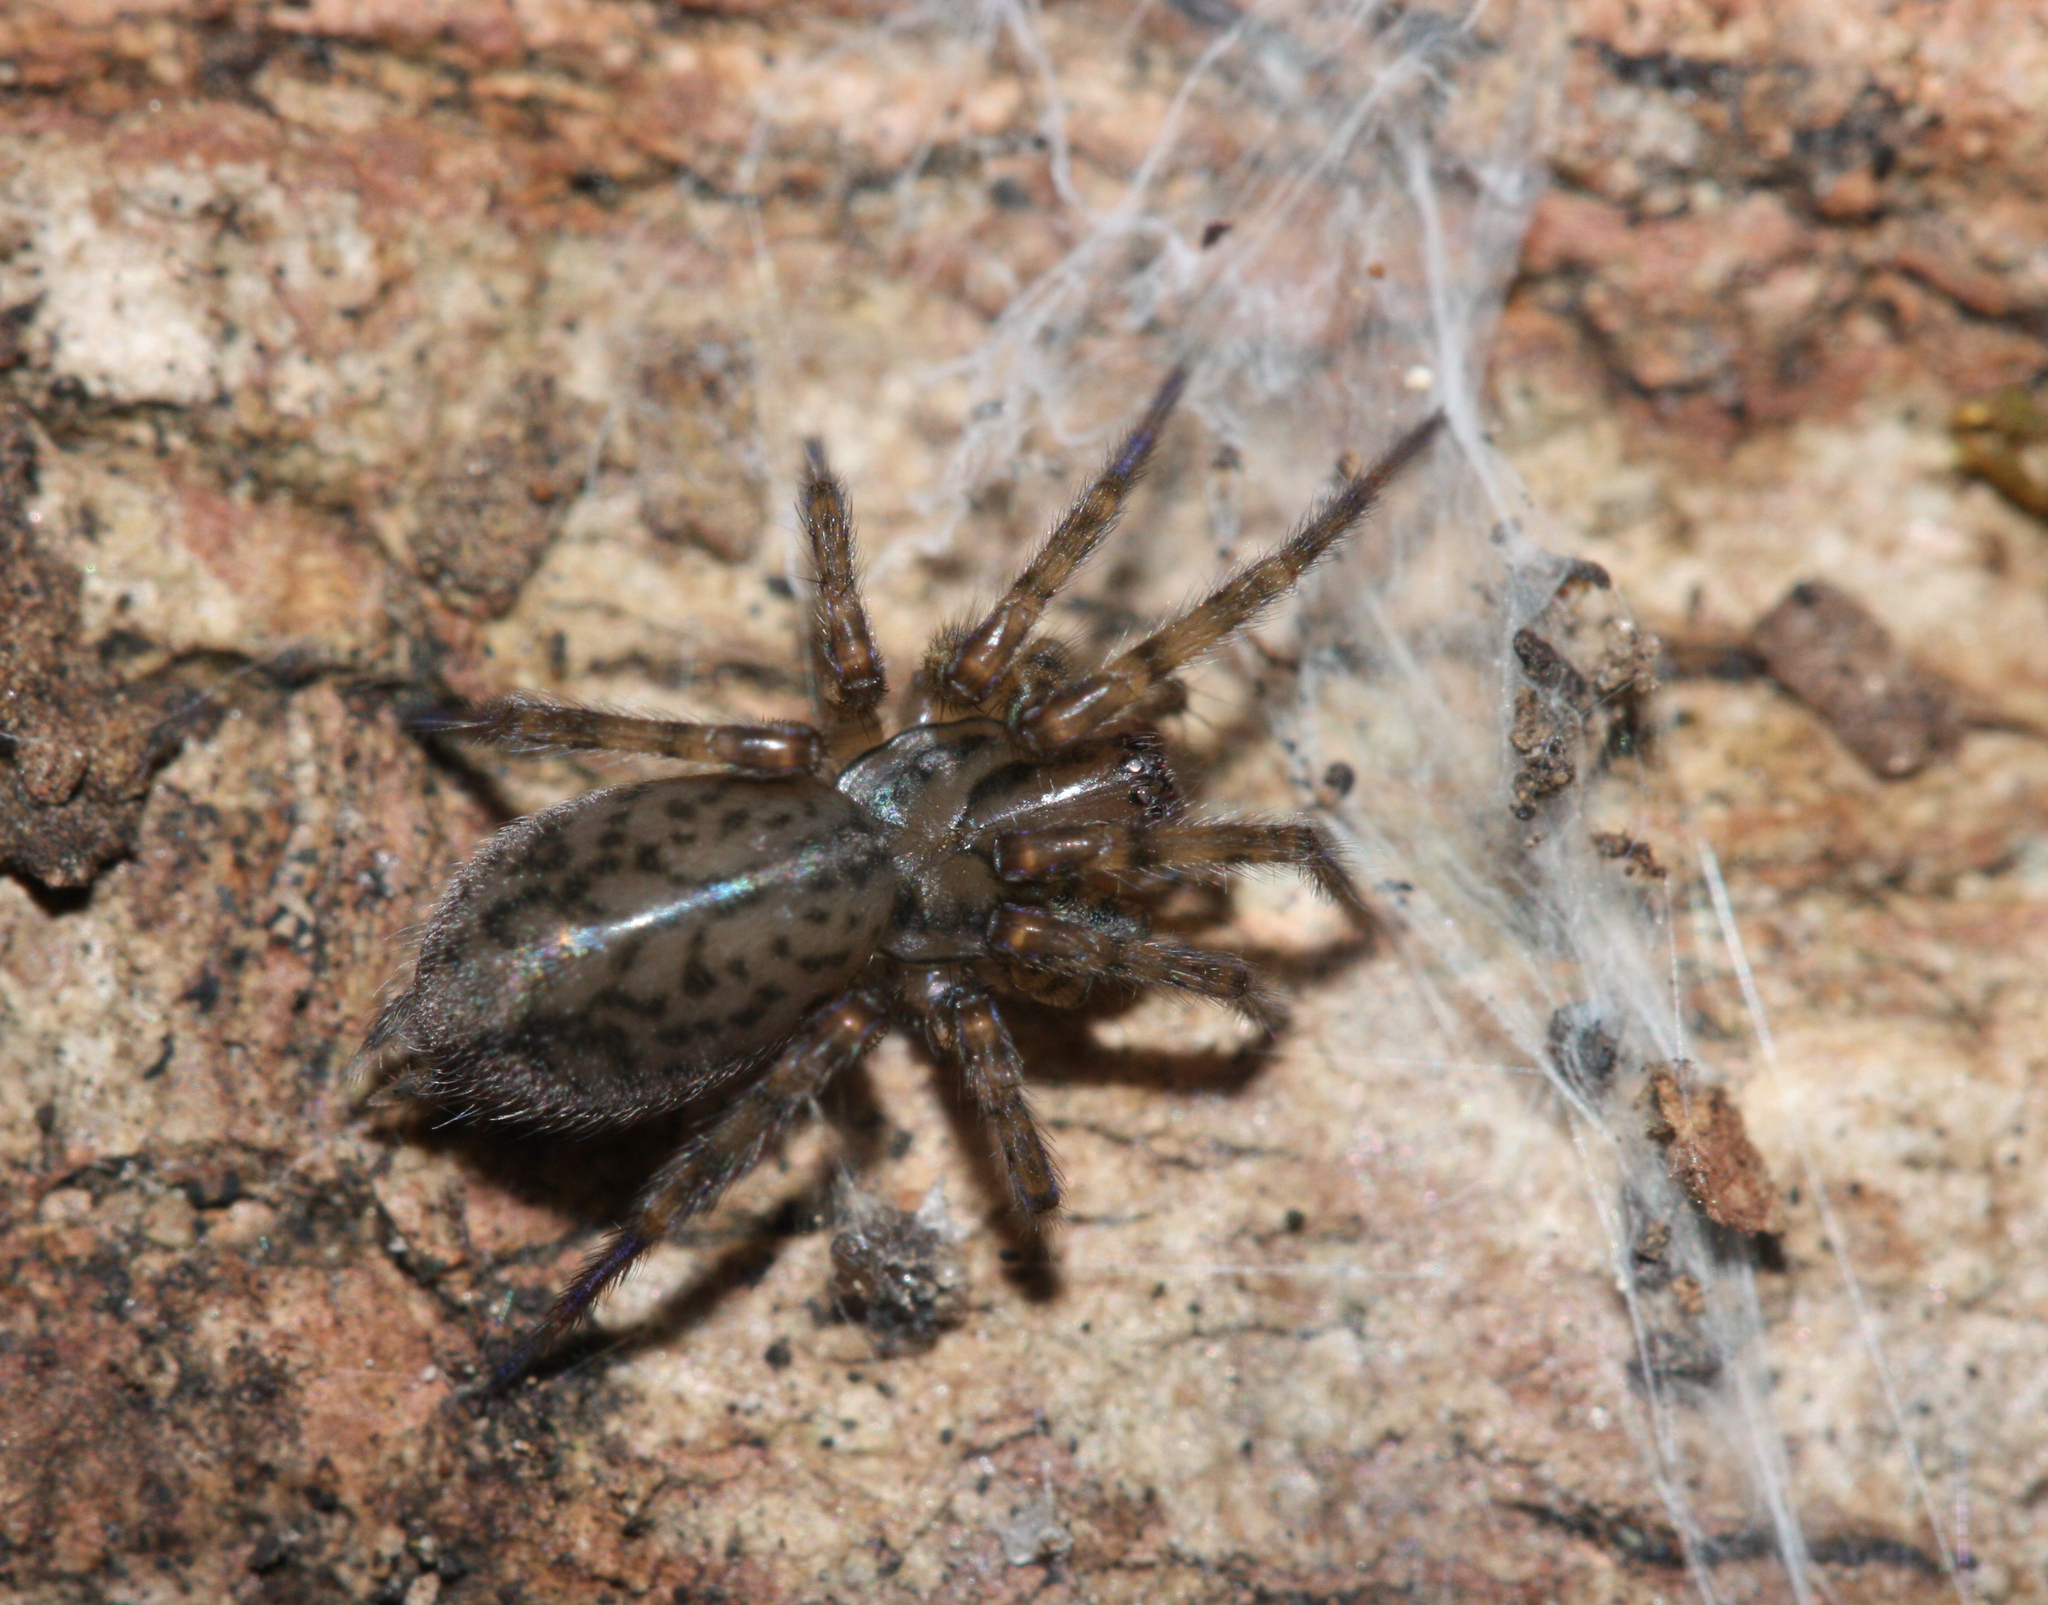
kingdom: Animalia
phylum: Arthropoda
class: Arachnida
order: Araneae
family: Agelenidae
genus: Coras
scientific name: Coras
